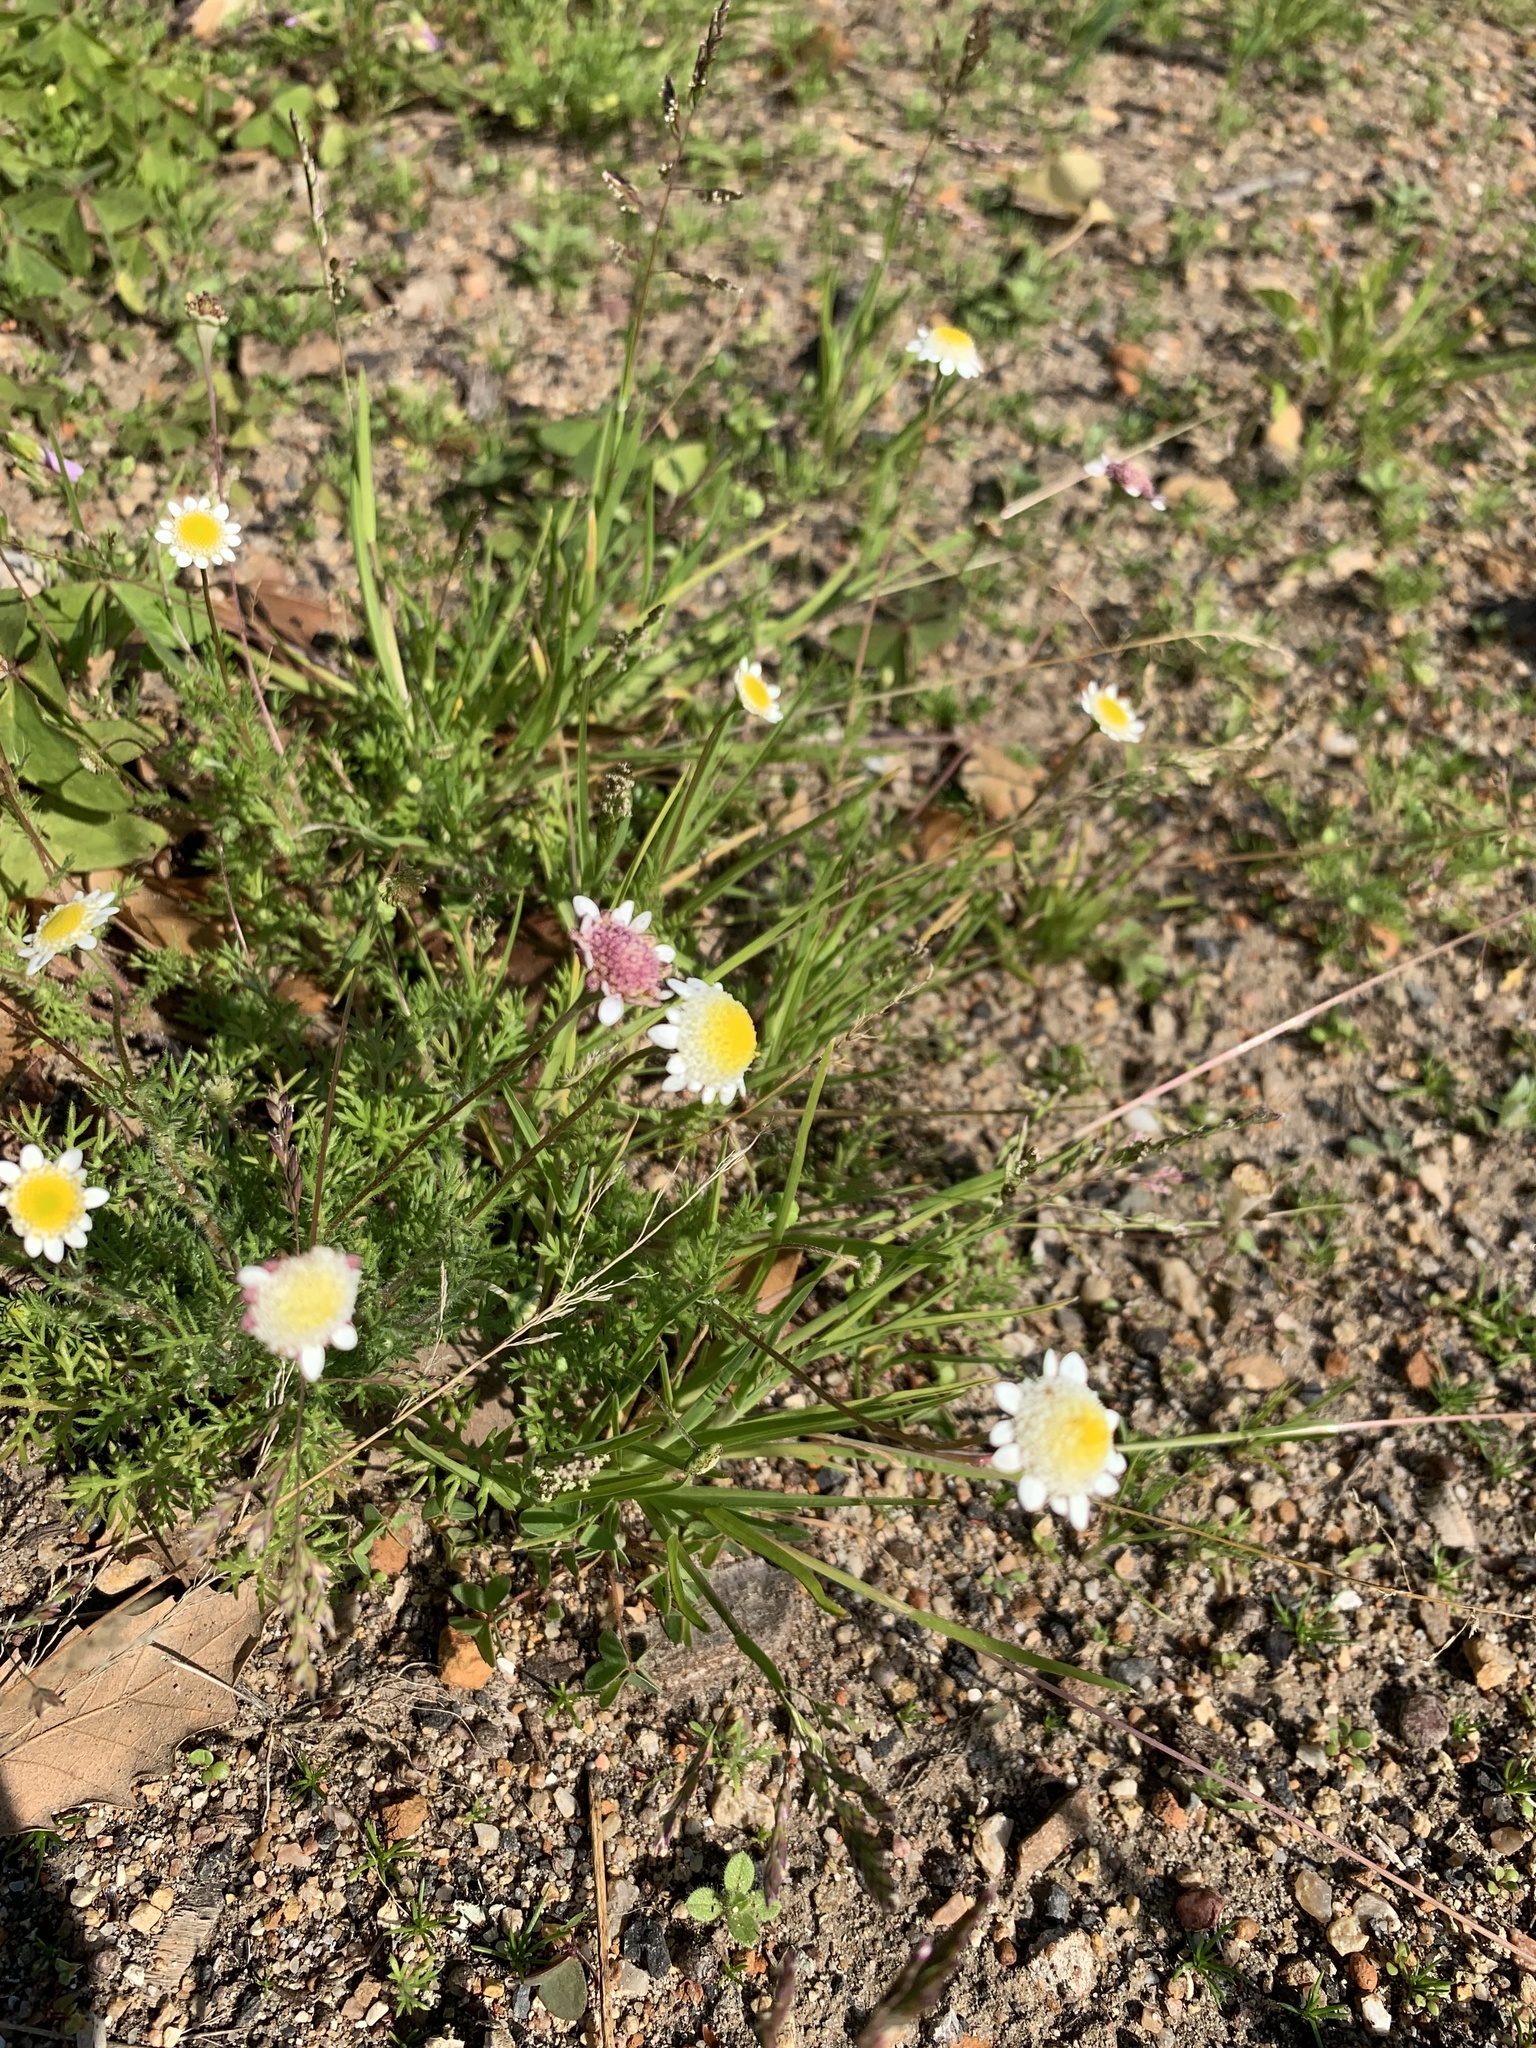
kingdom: Plantae
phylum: Tracheophyta
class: Magnoliopsida
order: Asterales
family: Asteraceae
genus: Cotula
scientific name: Cotula turbinata
